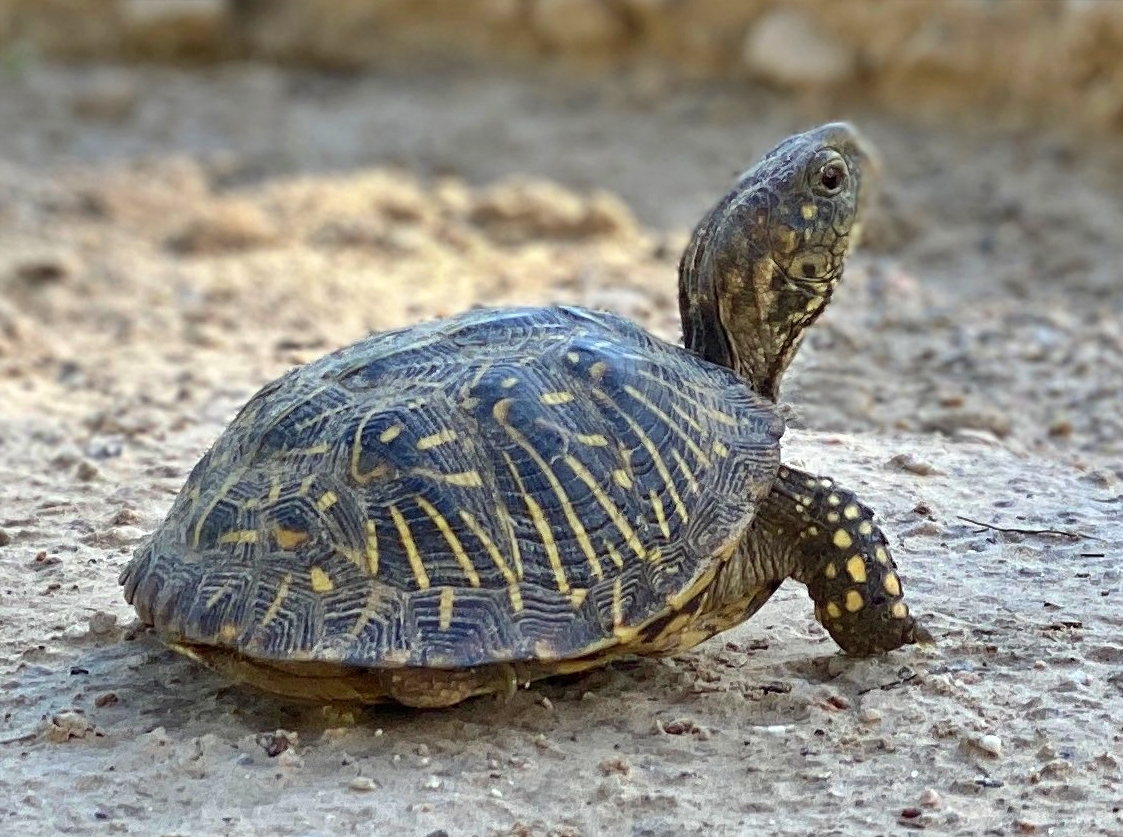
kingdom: Animalia
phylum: Chordata
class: Testudines
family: Emydidae
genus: Terrapene
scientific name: Terrapene ornata
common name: Western box turtle
